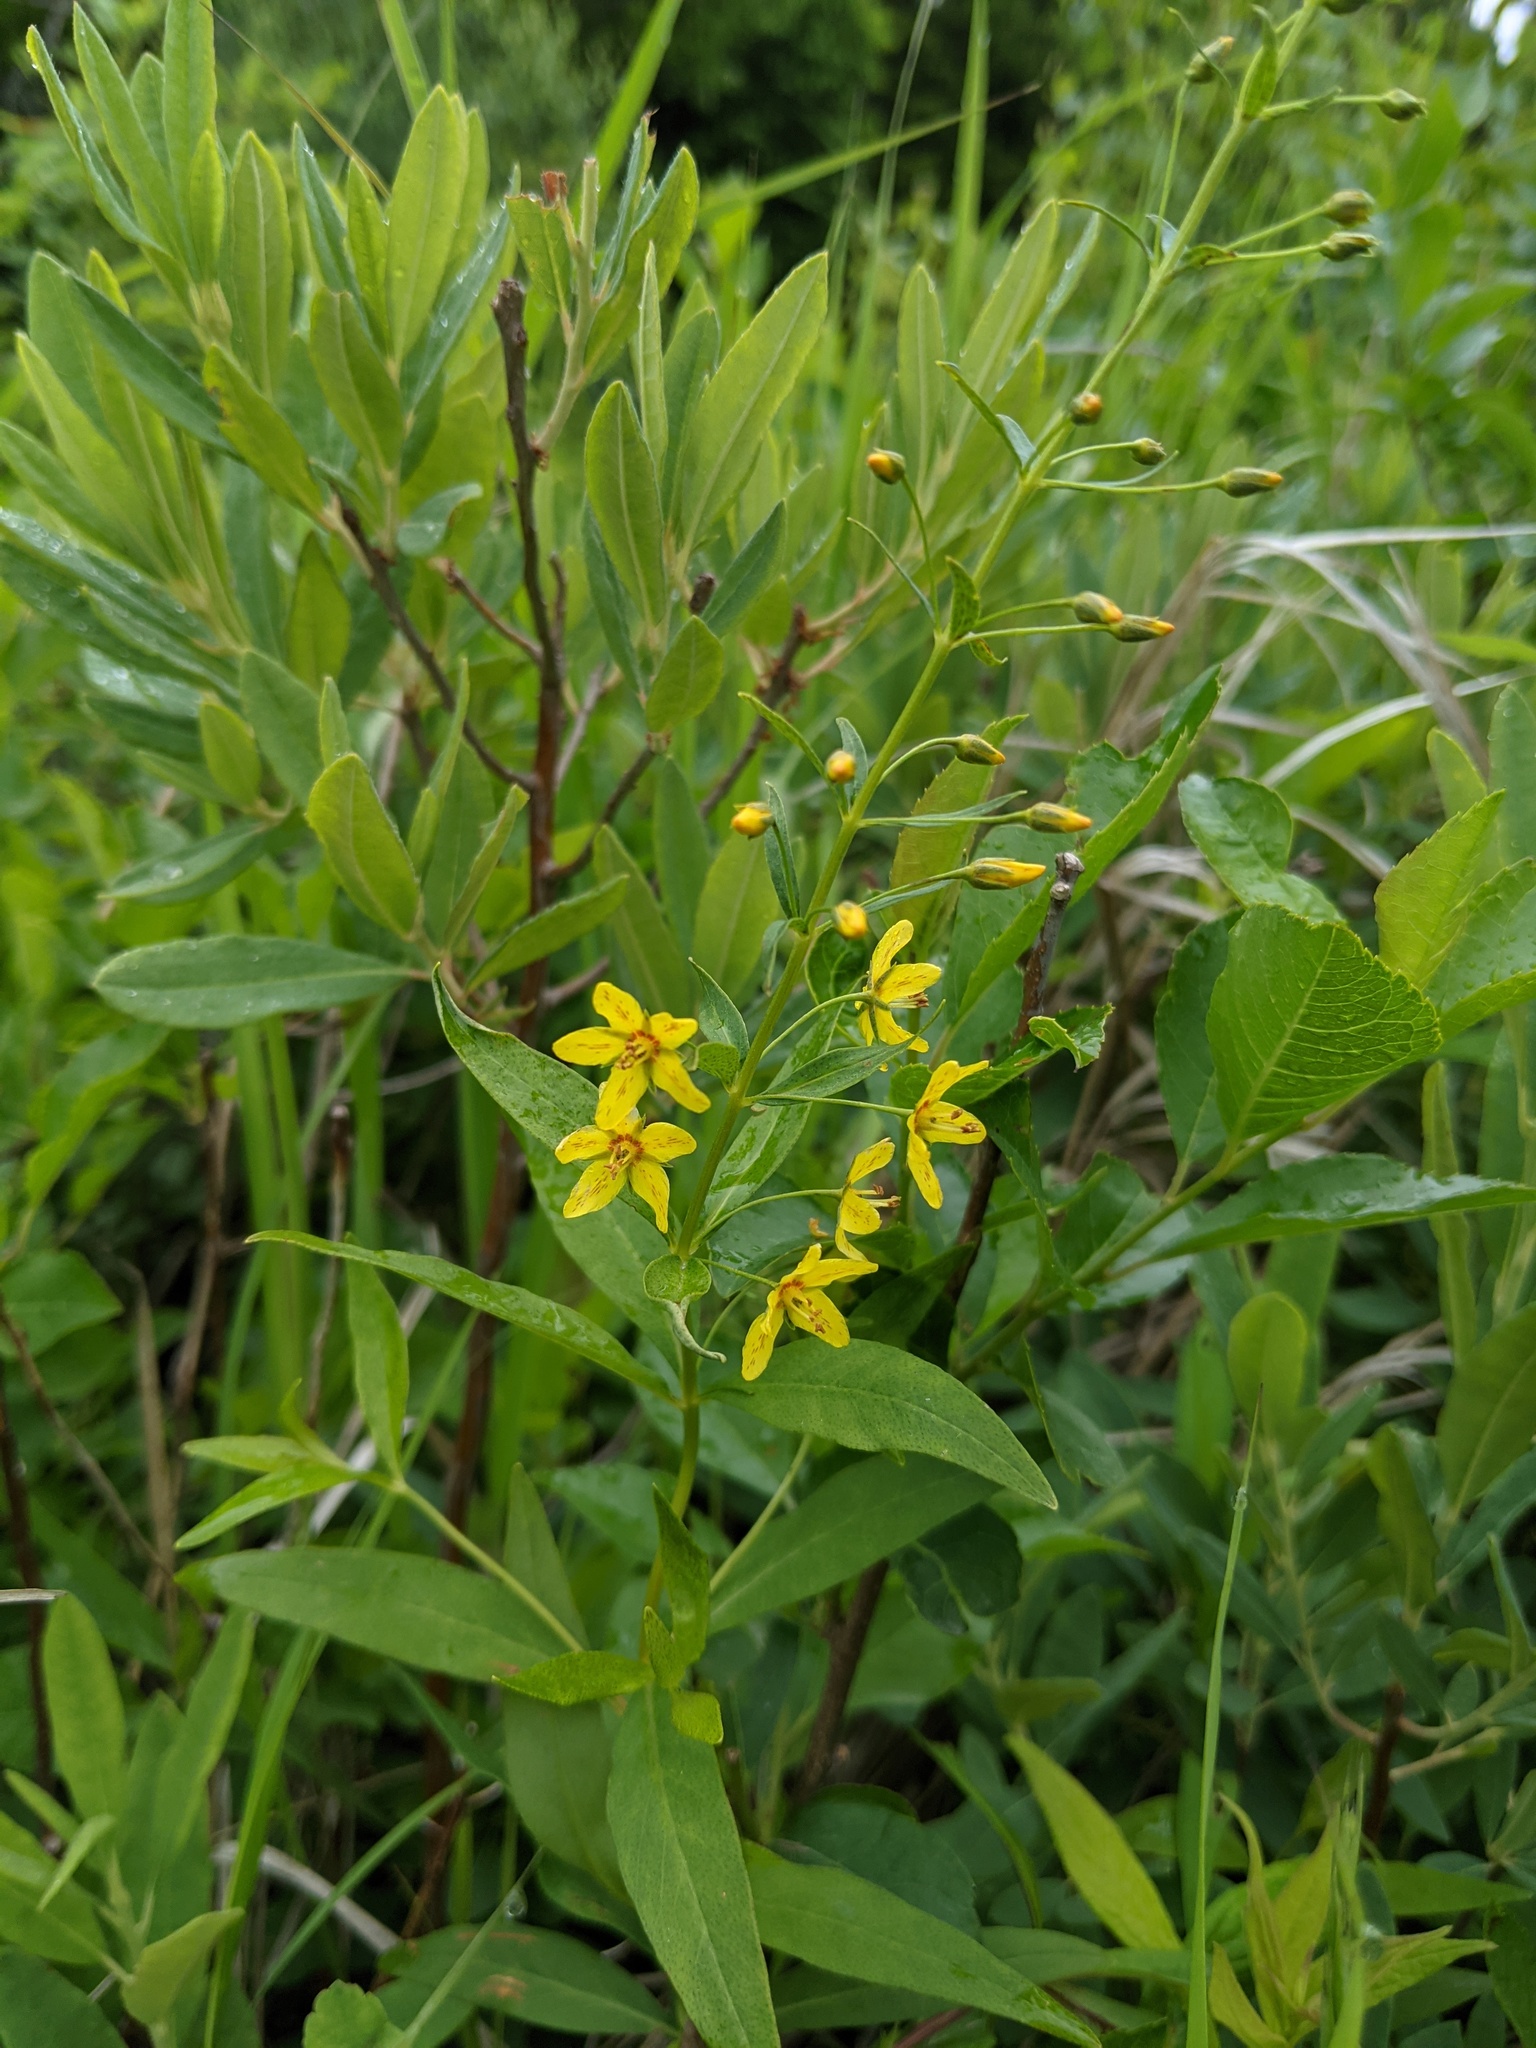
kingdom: Plantae
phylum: Tracheophyta
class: Magnoliopsida
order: Ericales
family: Primulaceae
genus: Lysimachia
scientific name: Lysimachia quadrifolia
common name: Whorled loosestrife
